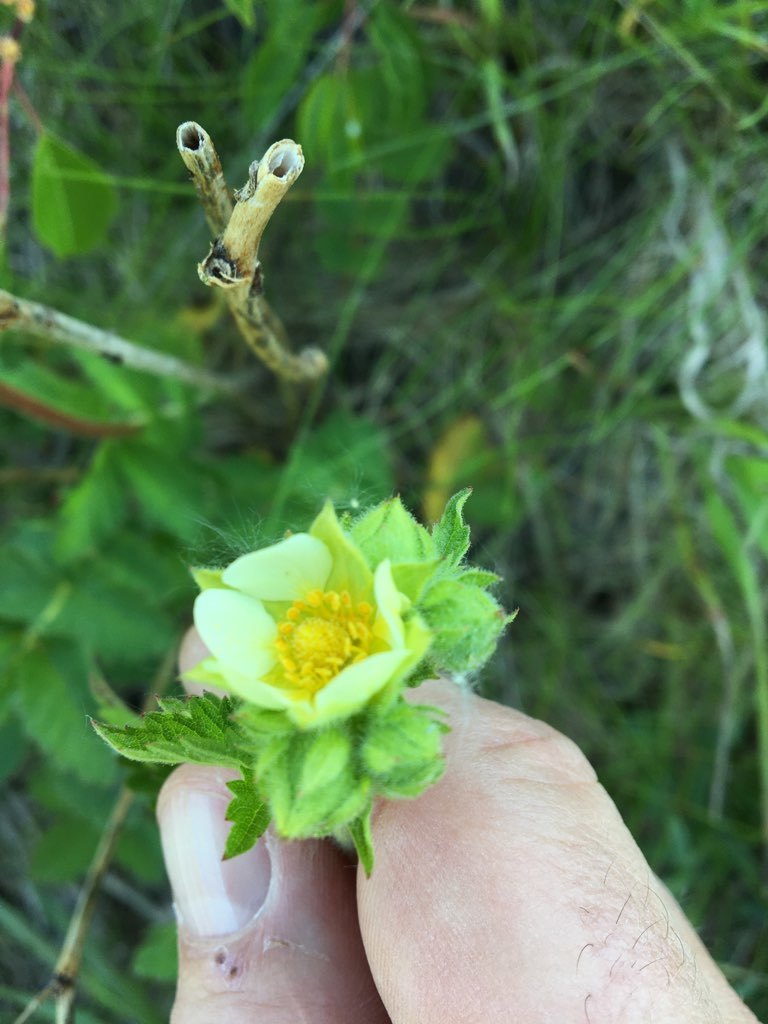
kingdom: Plantae
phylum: Tracheophyta
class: Magnoliopsida
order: Rosales
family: Rosaceae
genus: Drymocallis
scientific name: Drymocallis arguta
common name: Tall cinquefoil
